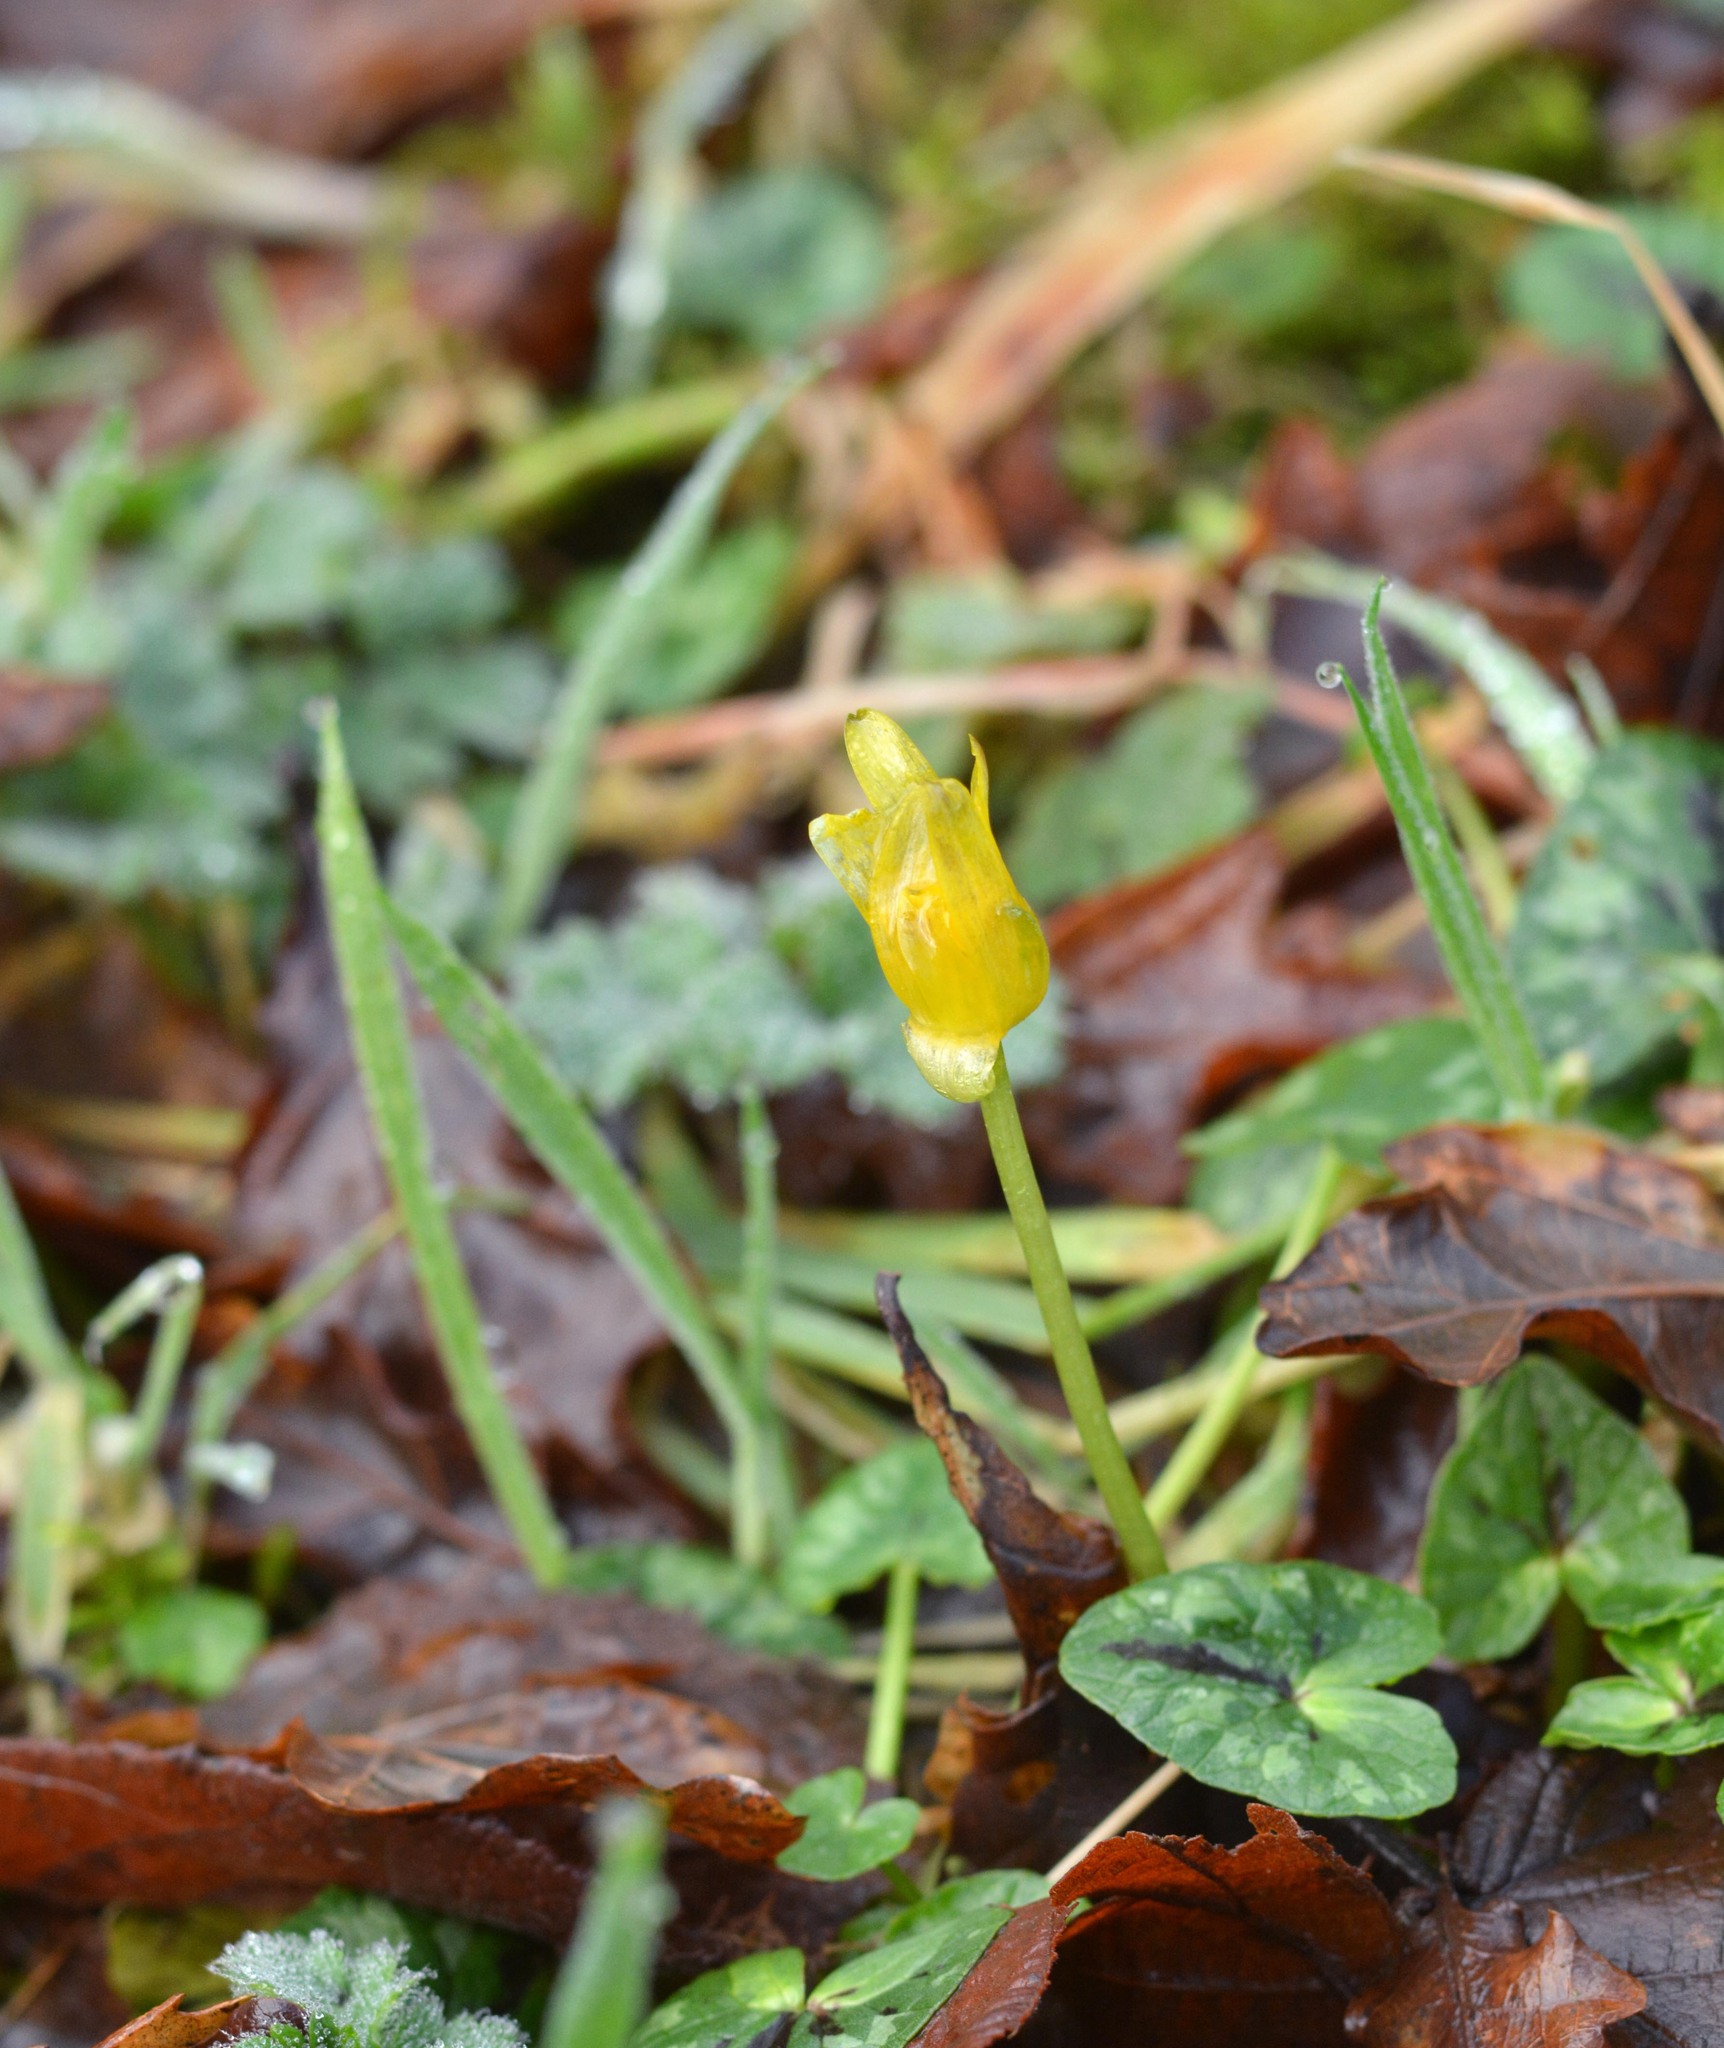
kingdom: Plantae
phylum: Tracheophyta
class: Magnoliopsida
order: Ranunculales
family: Ranunculaceae
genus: Ficaria
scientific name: Ficaria verna
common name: Lesser celandine
